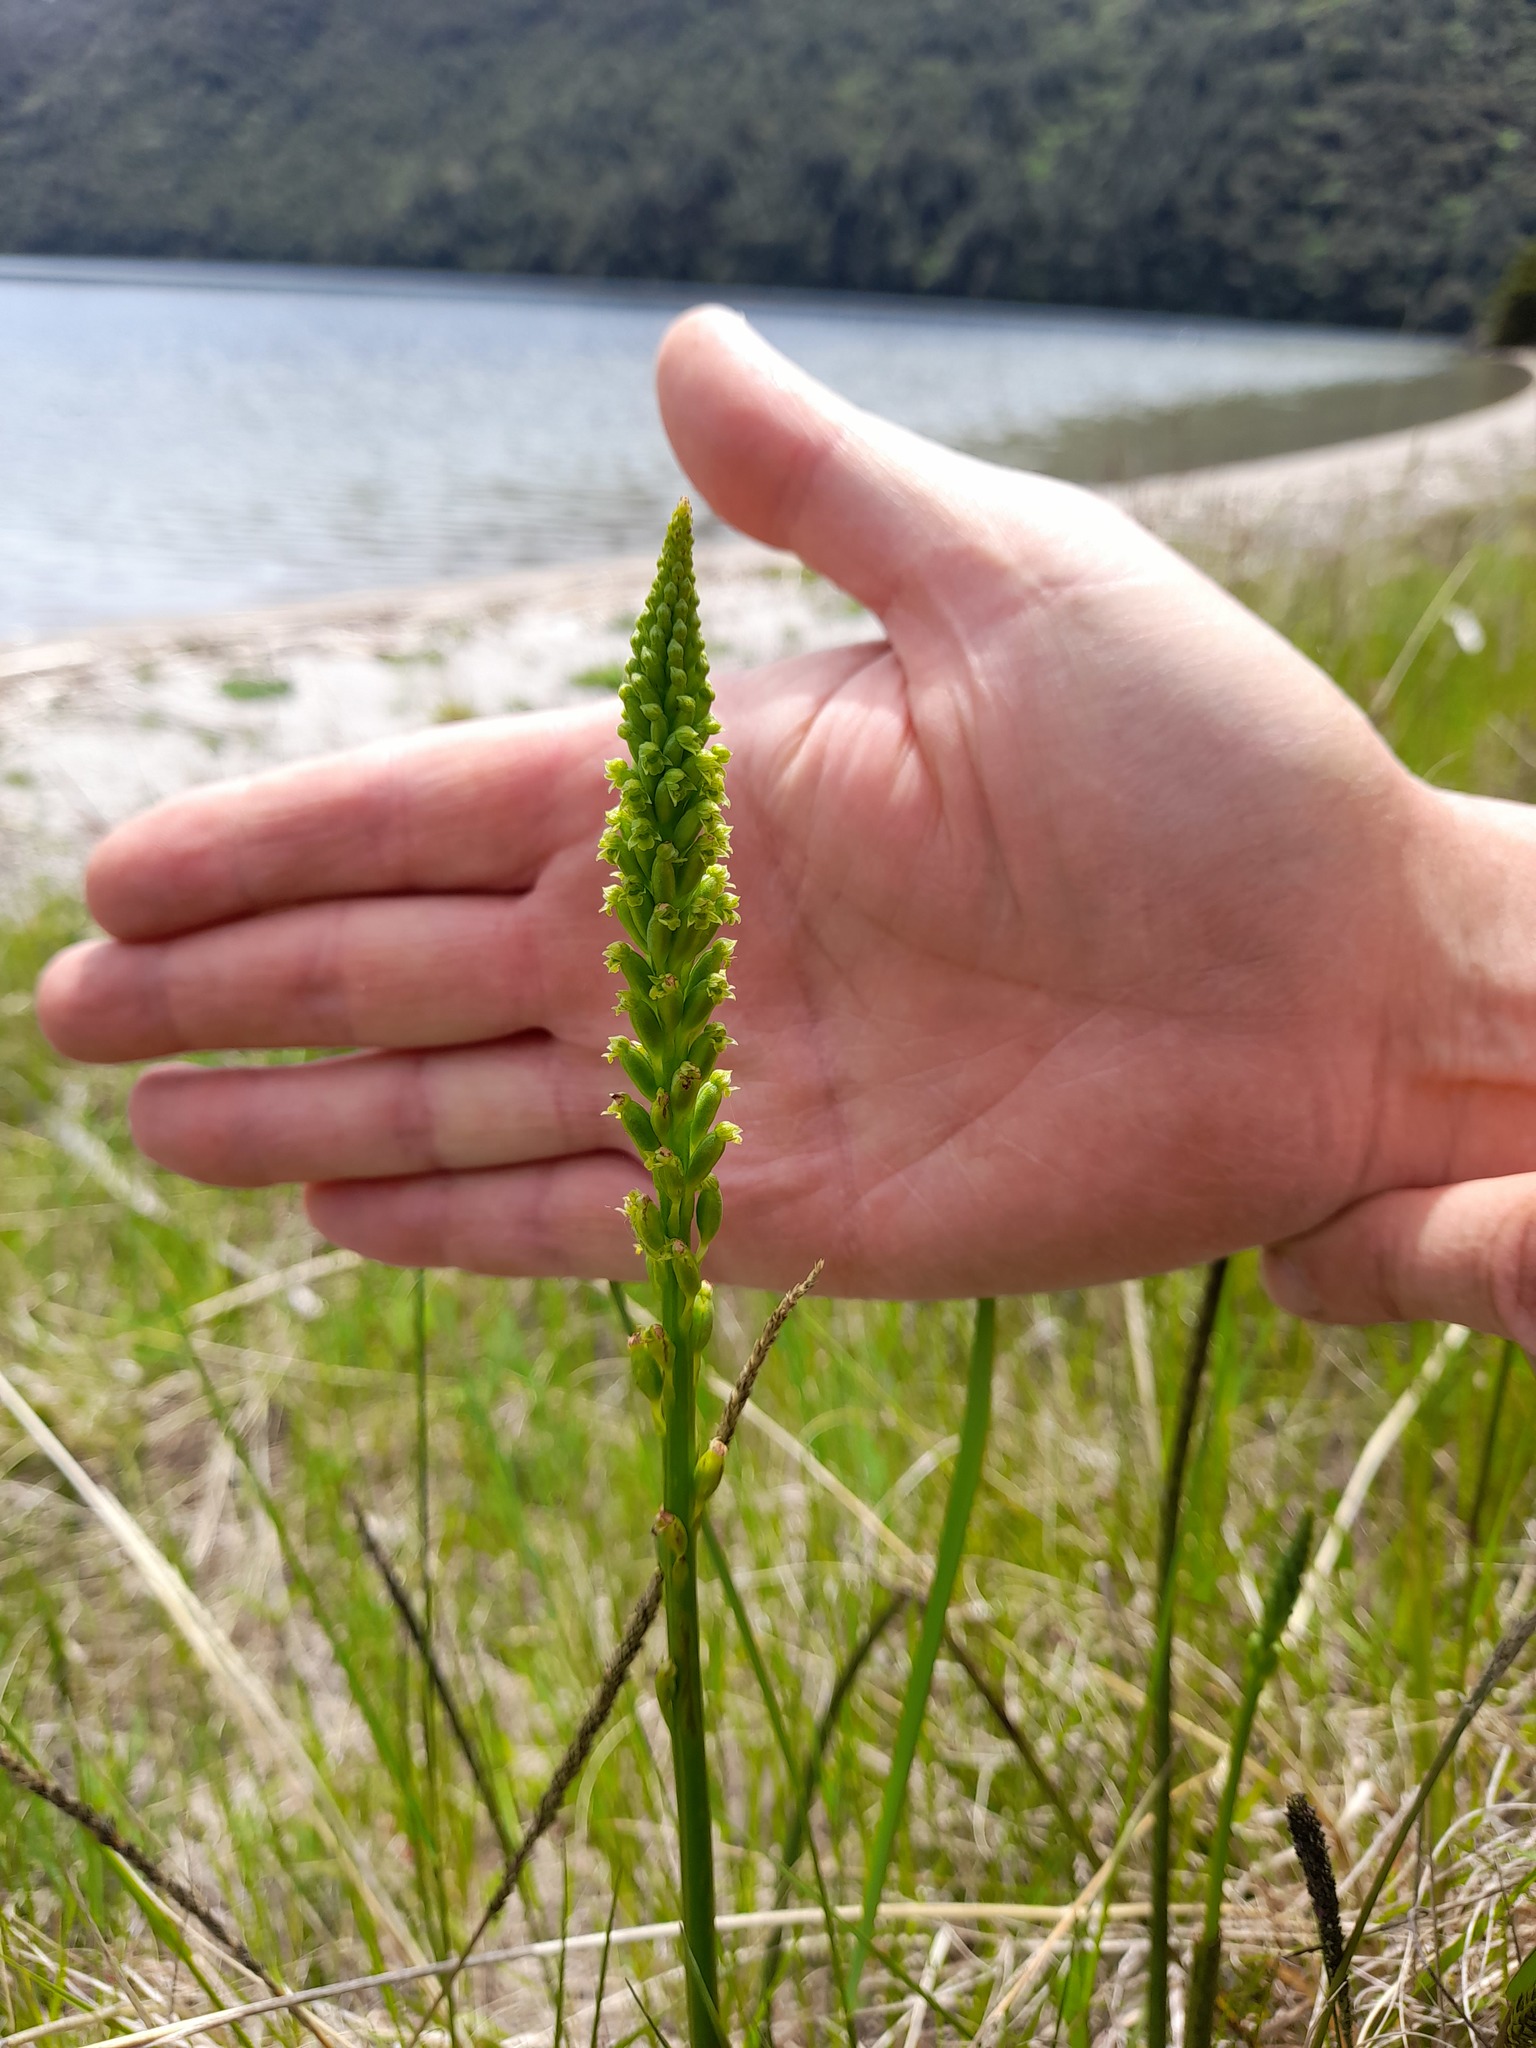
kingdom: Plantae
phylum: Tracheophyta
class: Liliopsida
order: Asparagales
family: Orchidaceae
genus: Microtis
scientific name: Microtis unifolia
